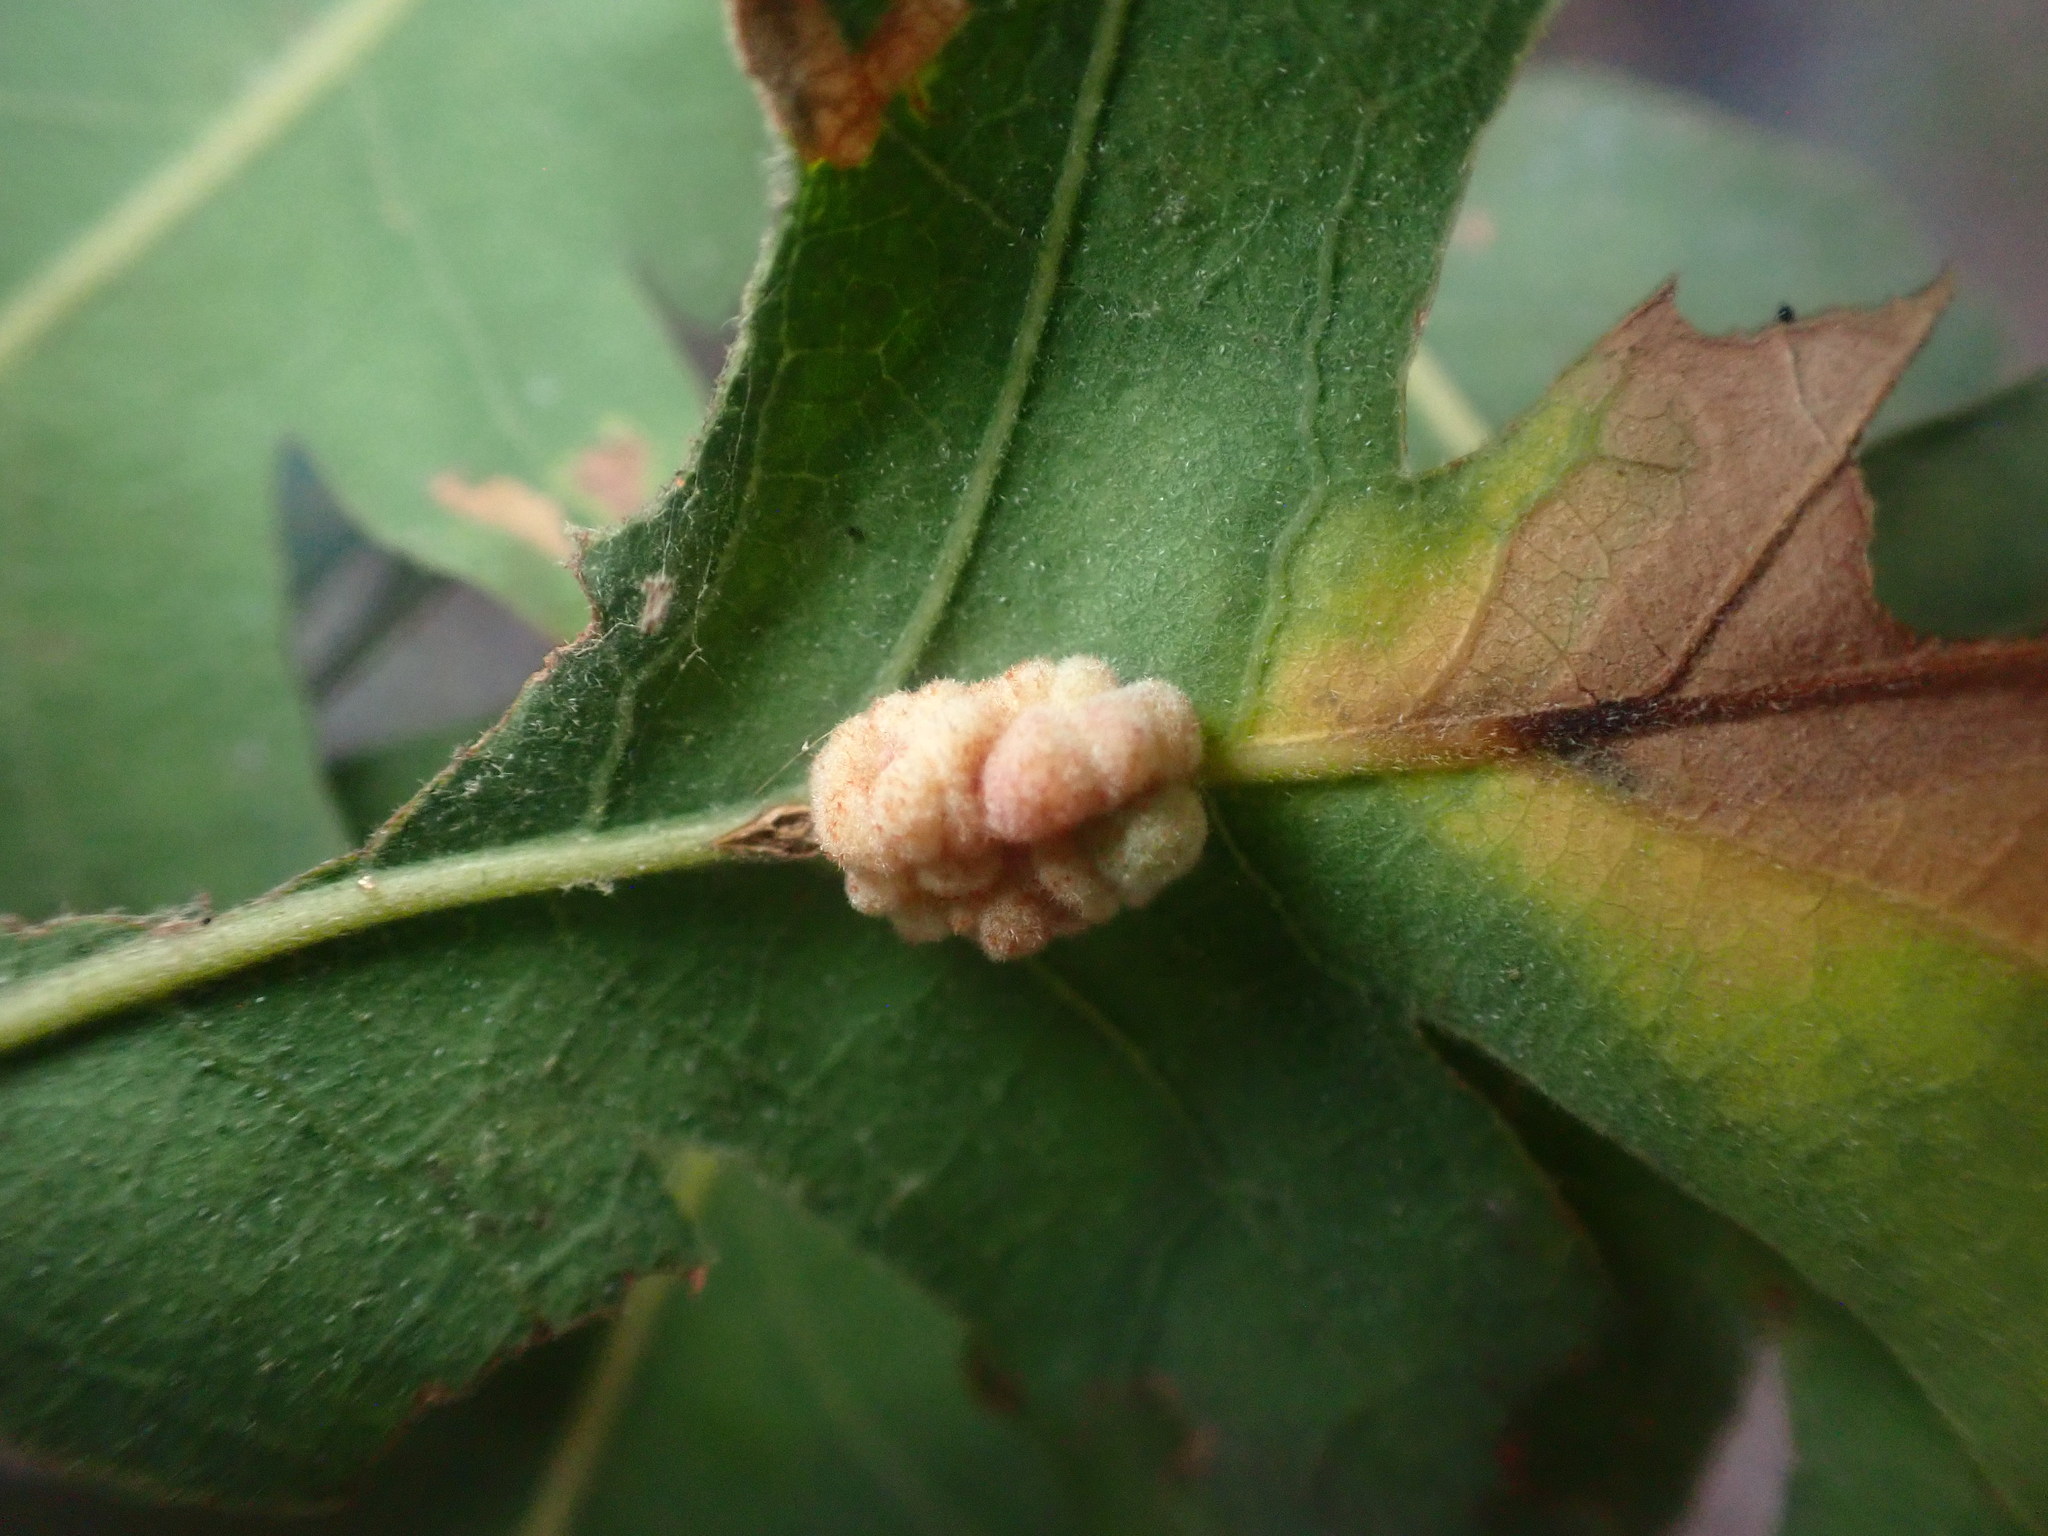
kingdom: Animalia
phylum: Arthropoda
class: Insecta
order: Hymenoptera
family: Cynipidae
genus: Andricus
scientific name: Andricus
